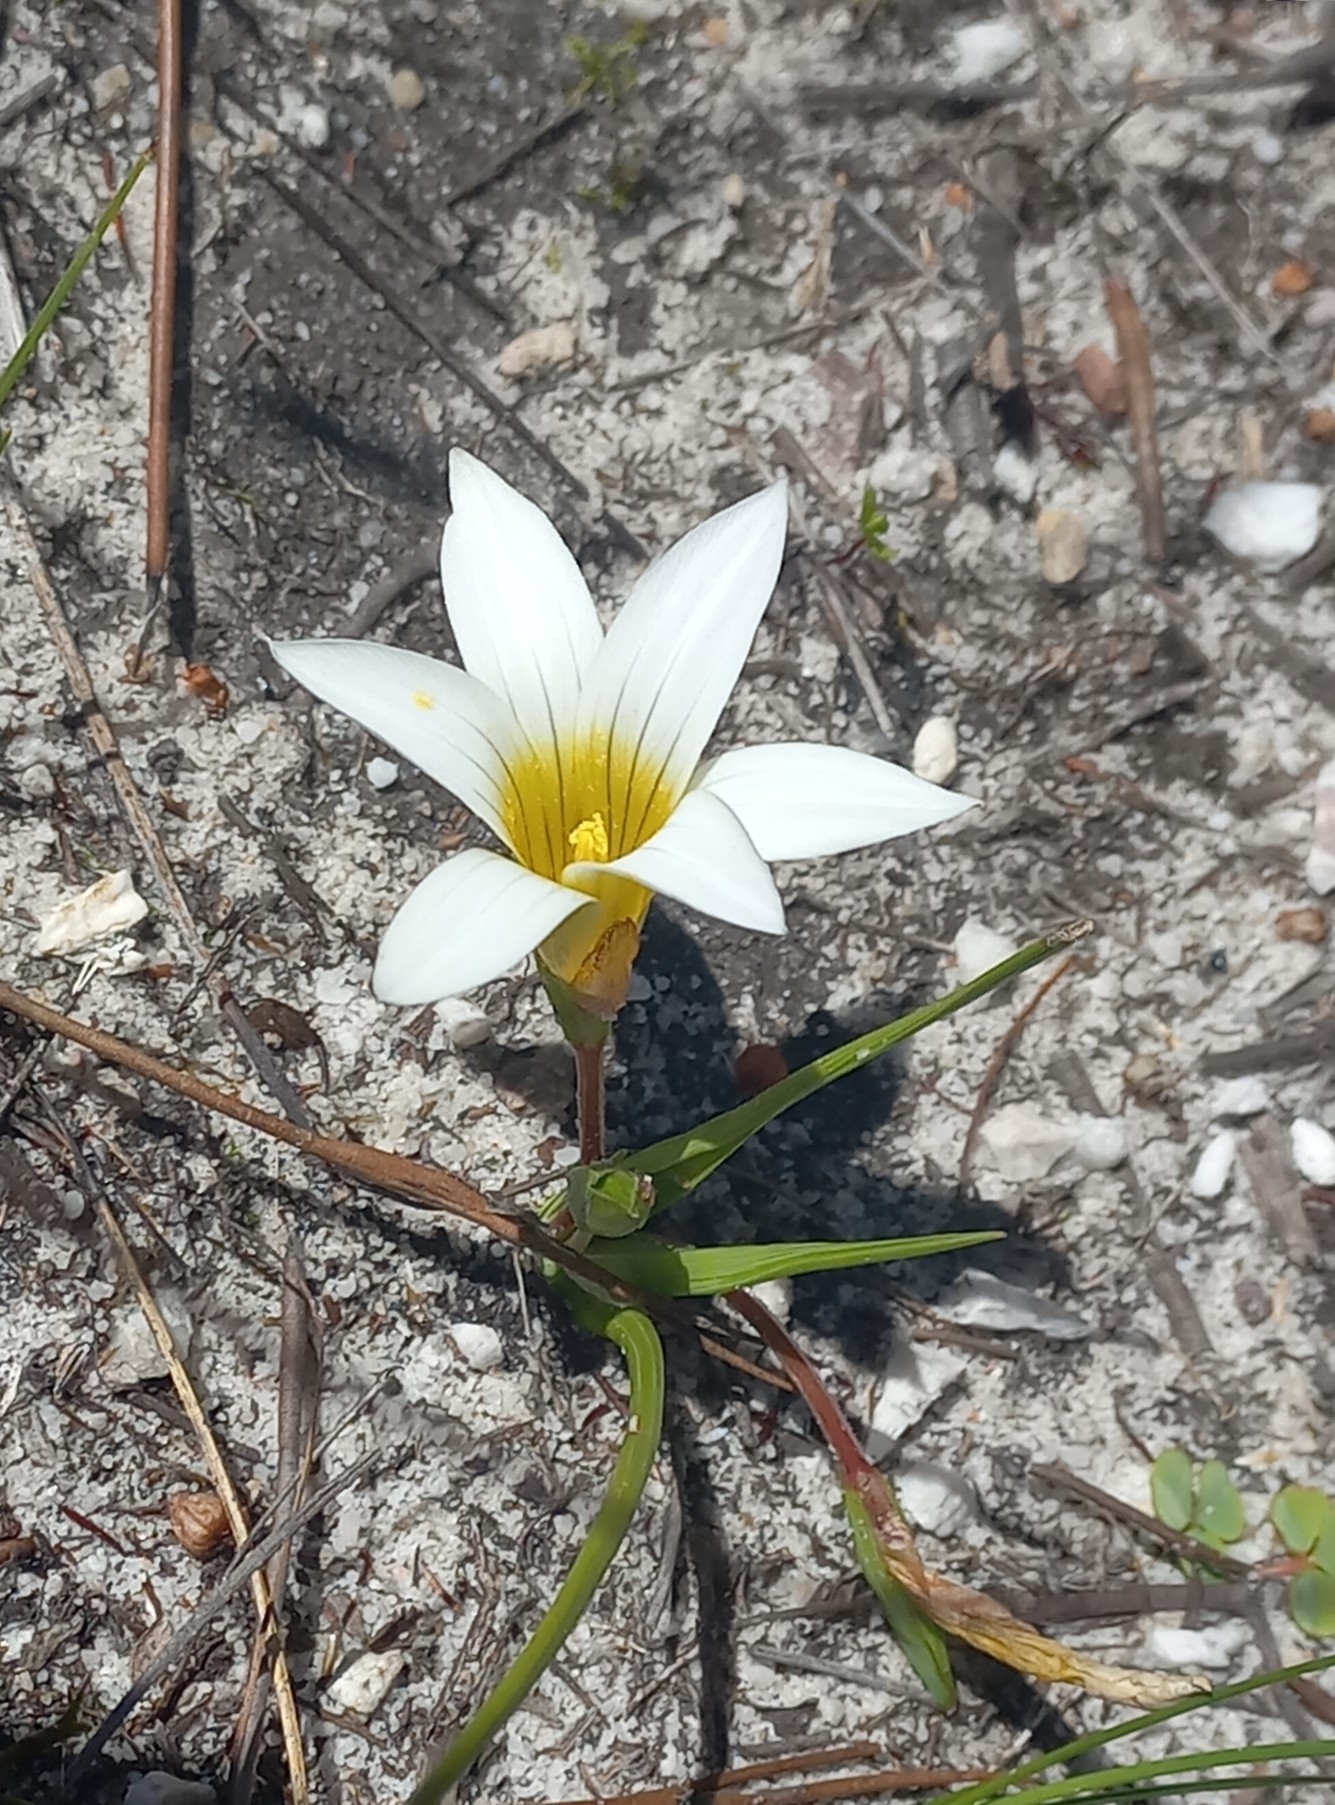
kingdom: Plantae
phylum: Tracheophyta
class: Liliopsida
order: Asparagales
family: Iridaceae
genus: Romulea
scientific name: Romulea flava
